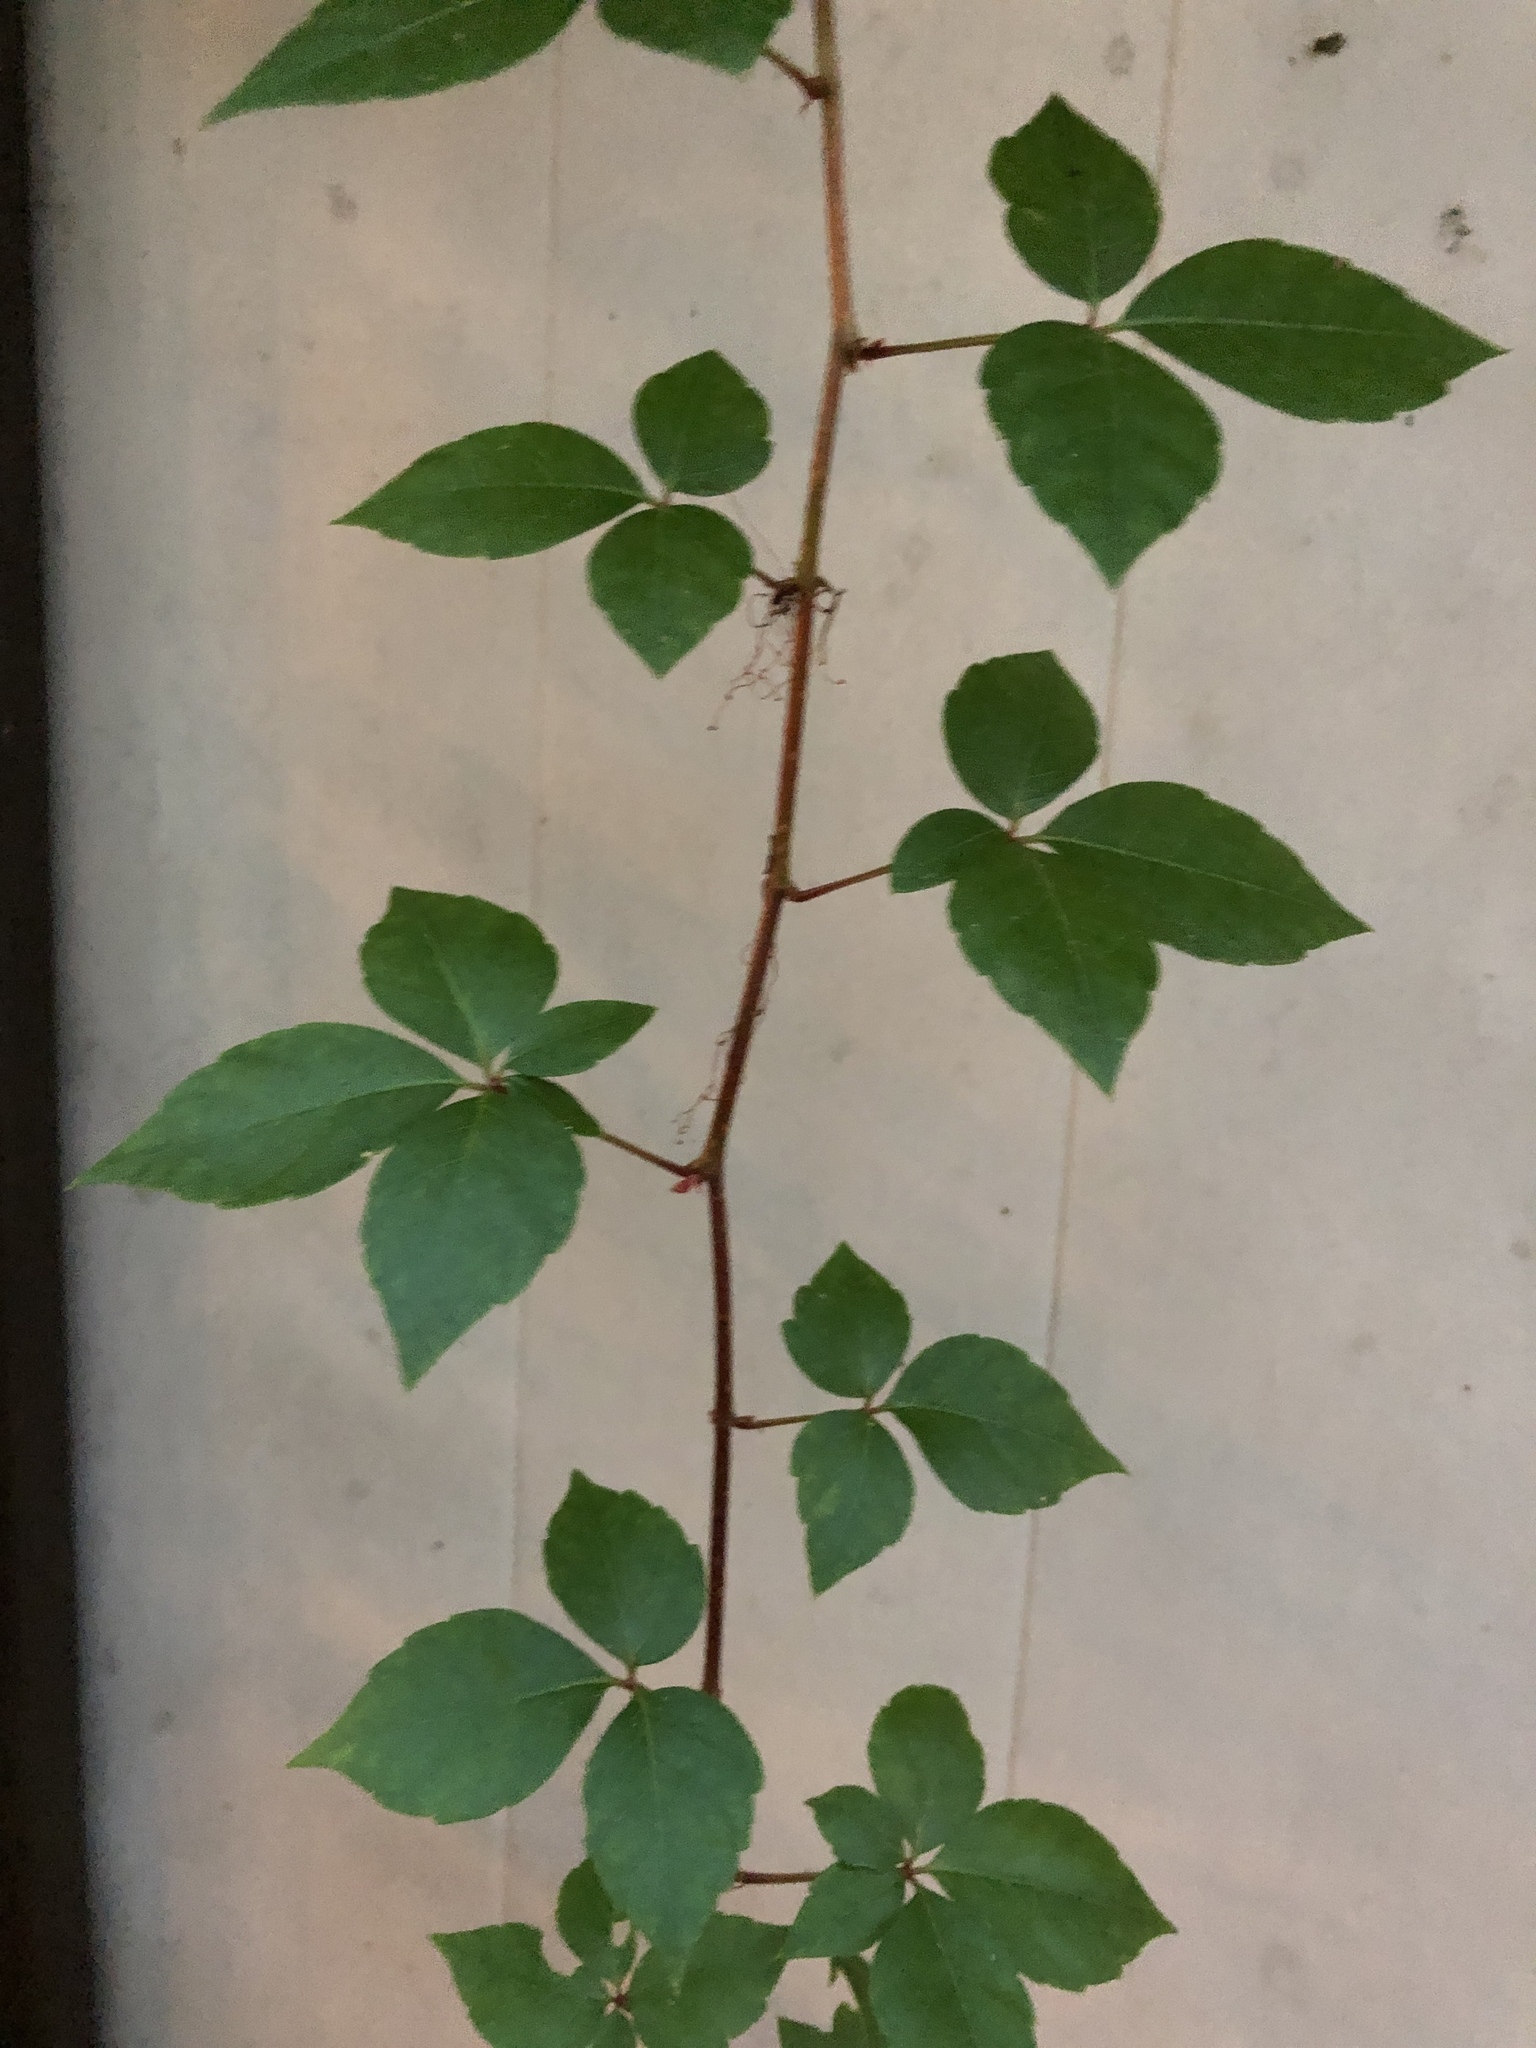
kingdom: Plantae
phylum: Tracheophyta
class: Magnoliopsida
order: Vitales
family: Vitaceae
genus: Parthenocissus
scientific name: Parthenocissus quinquefolia
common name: Virginia-creeper
